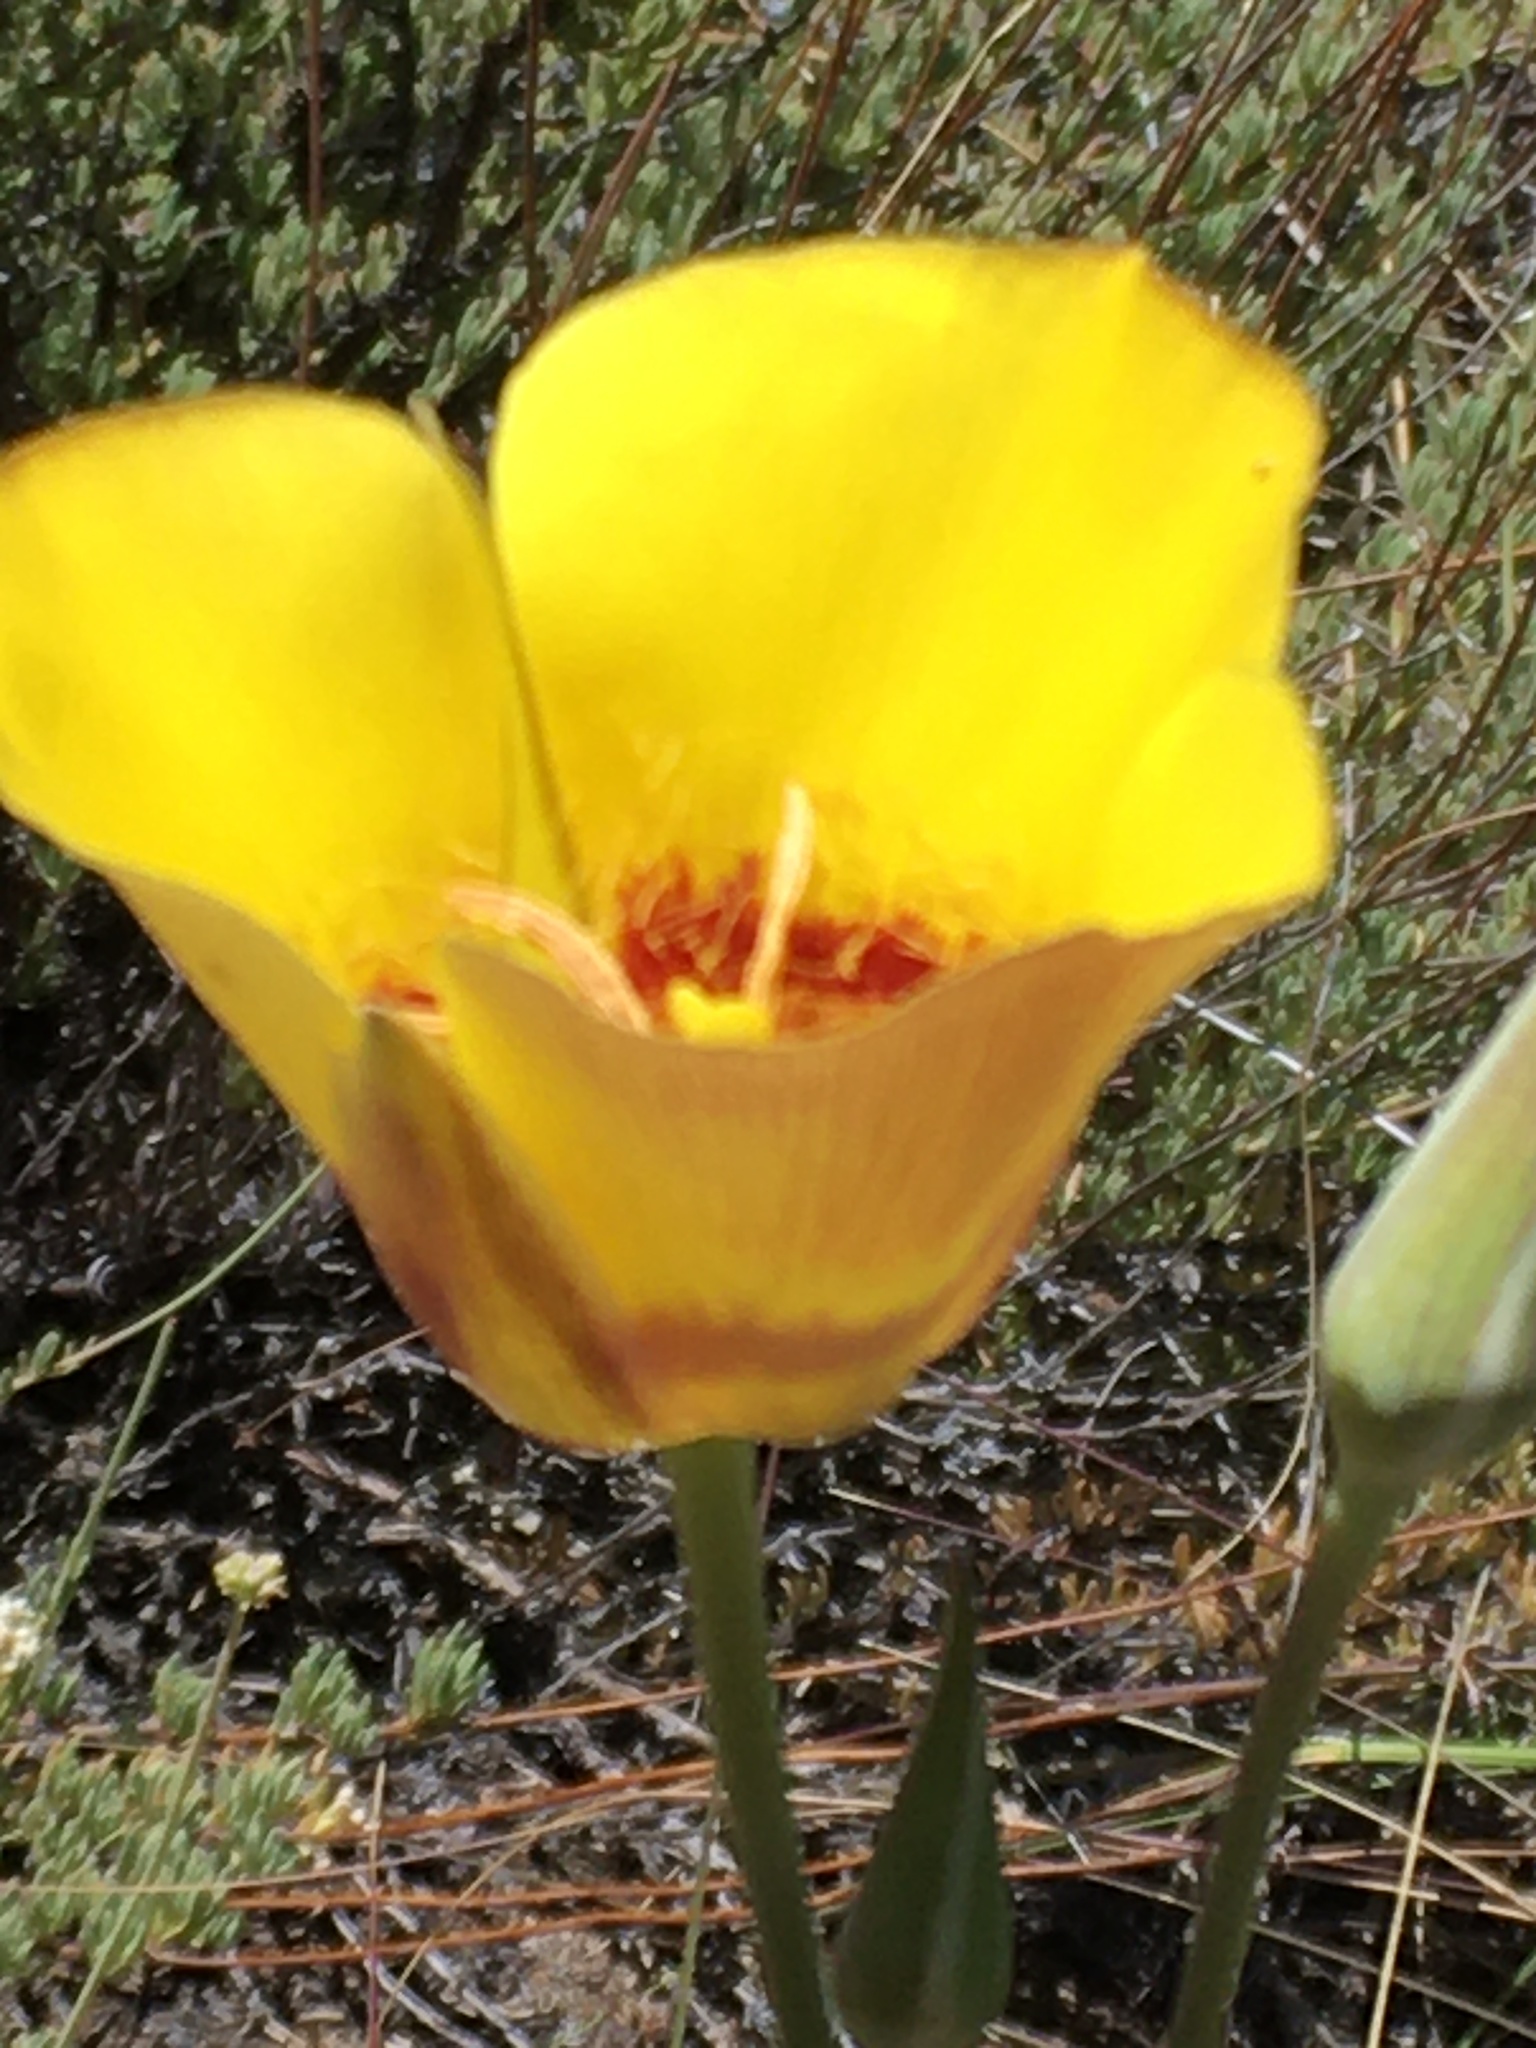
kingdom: Plantae
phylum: Tracheophyta
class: Liliopsida
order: Liliales
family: Liliaceae
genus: Calochortus
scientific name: Calochortus concolor
